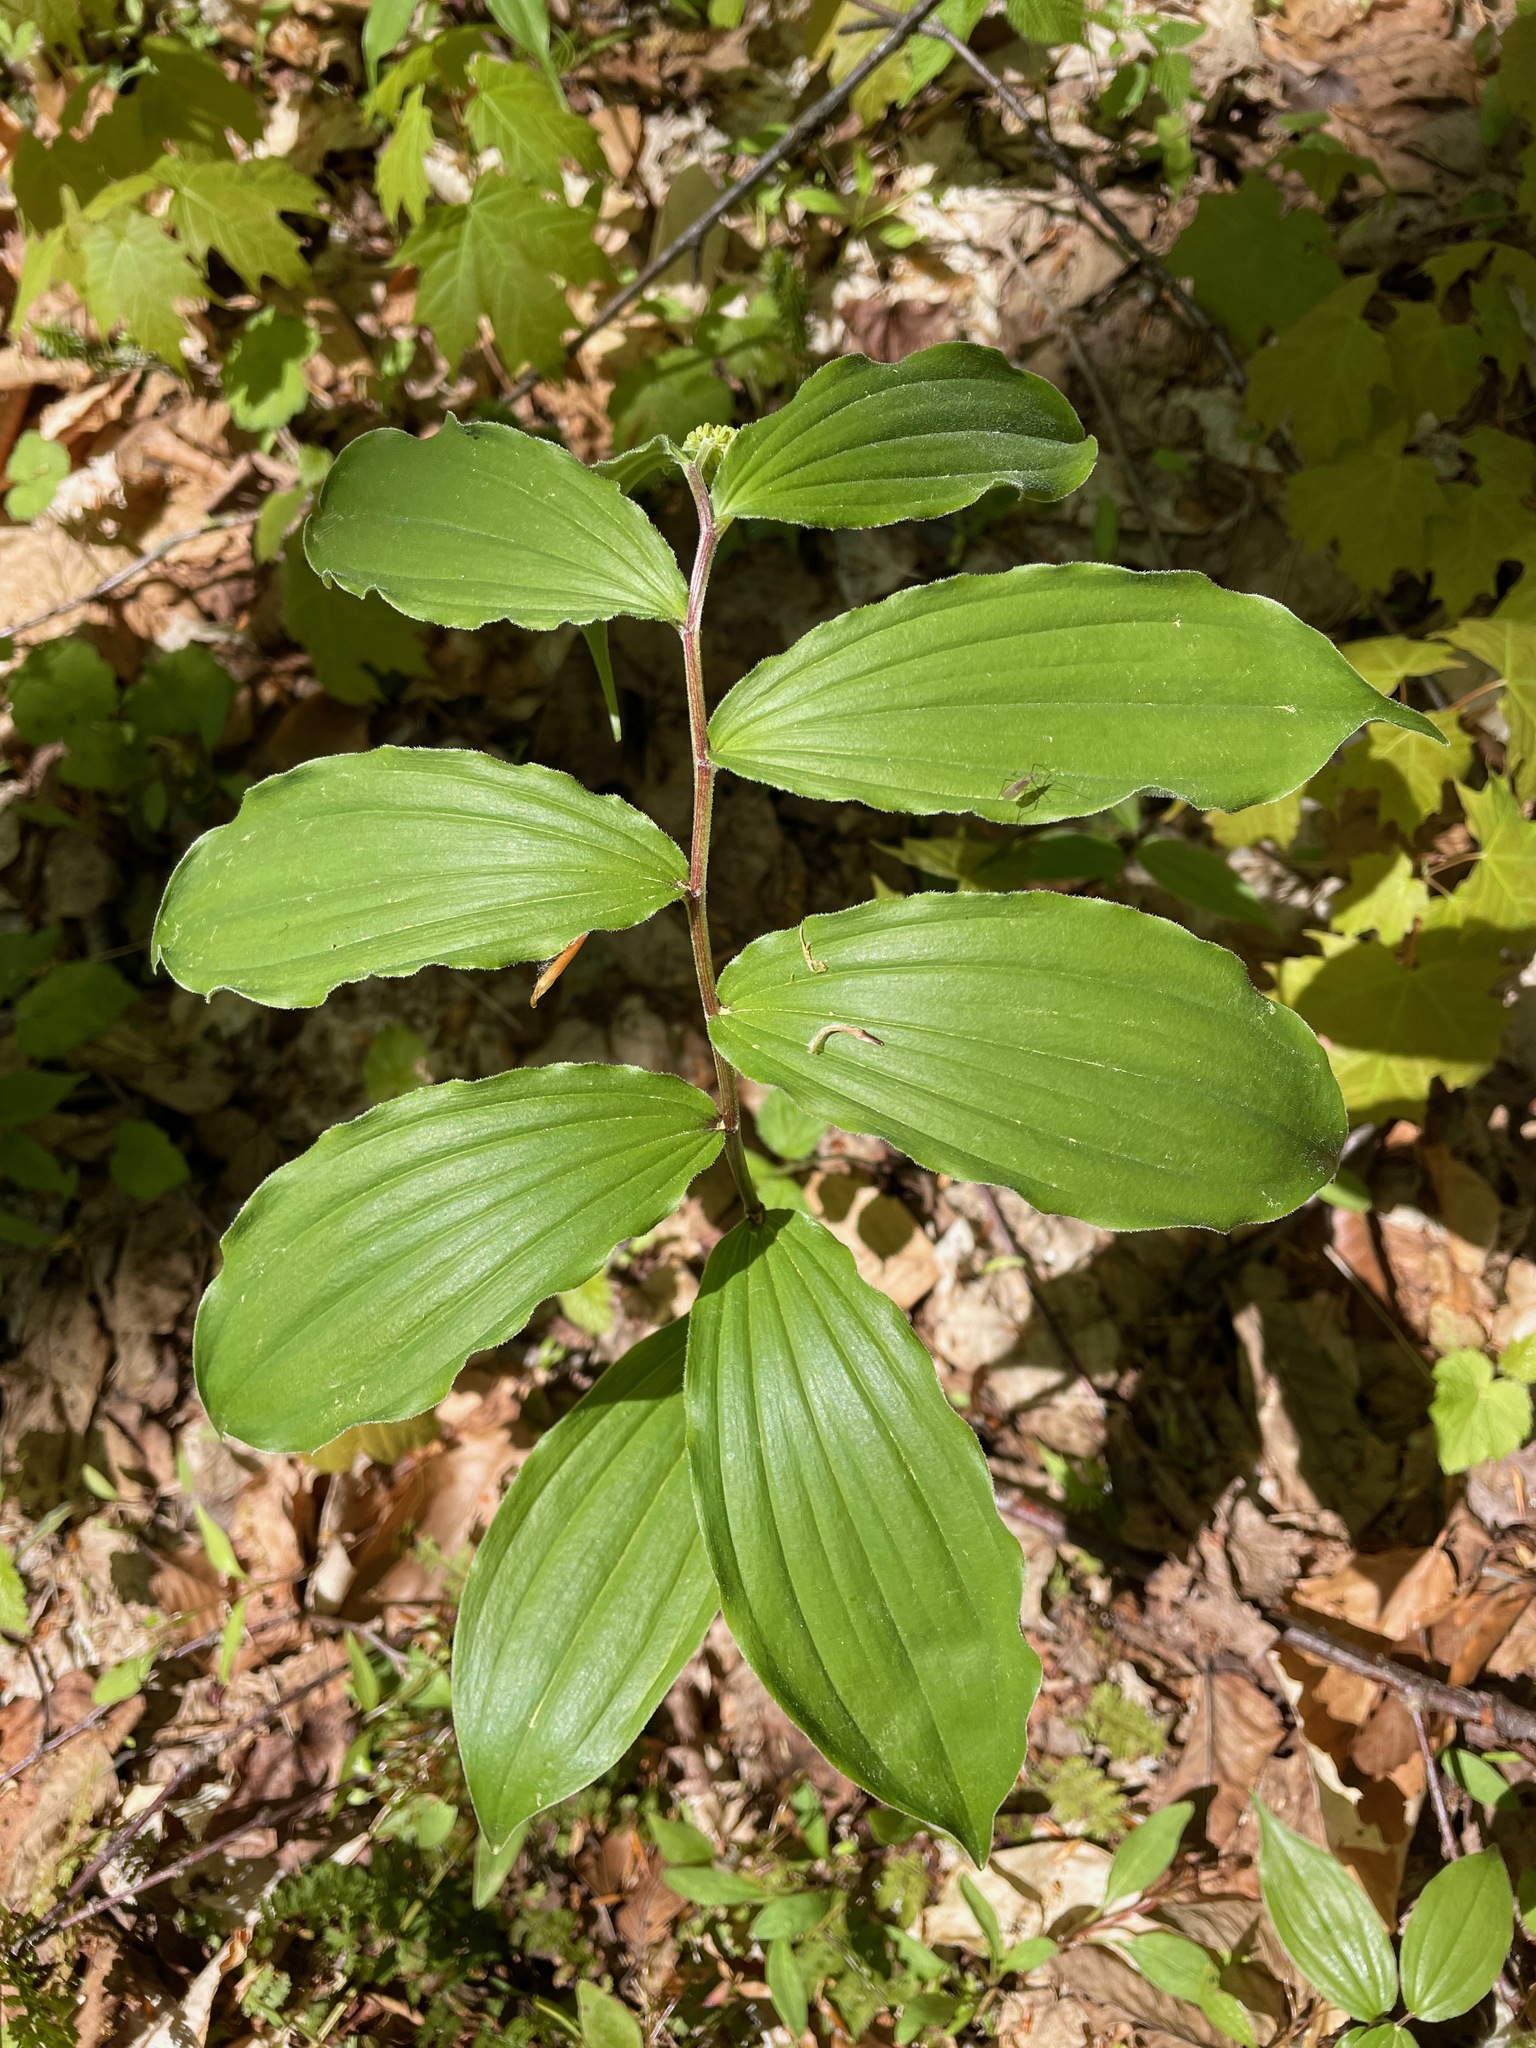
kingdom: Plantae
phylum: Tracheophyta
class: Liliopsida
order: Asparagales
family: Asparagaceae
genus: Maianthemum
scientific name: Maianthemum racemosum
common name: False spikenard
